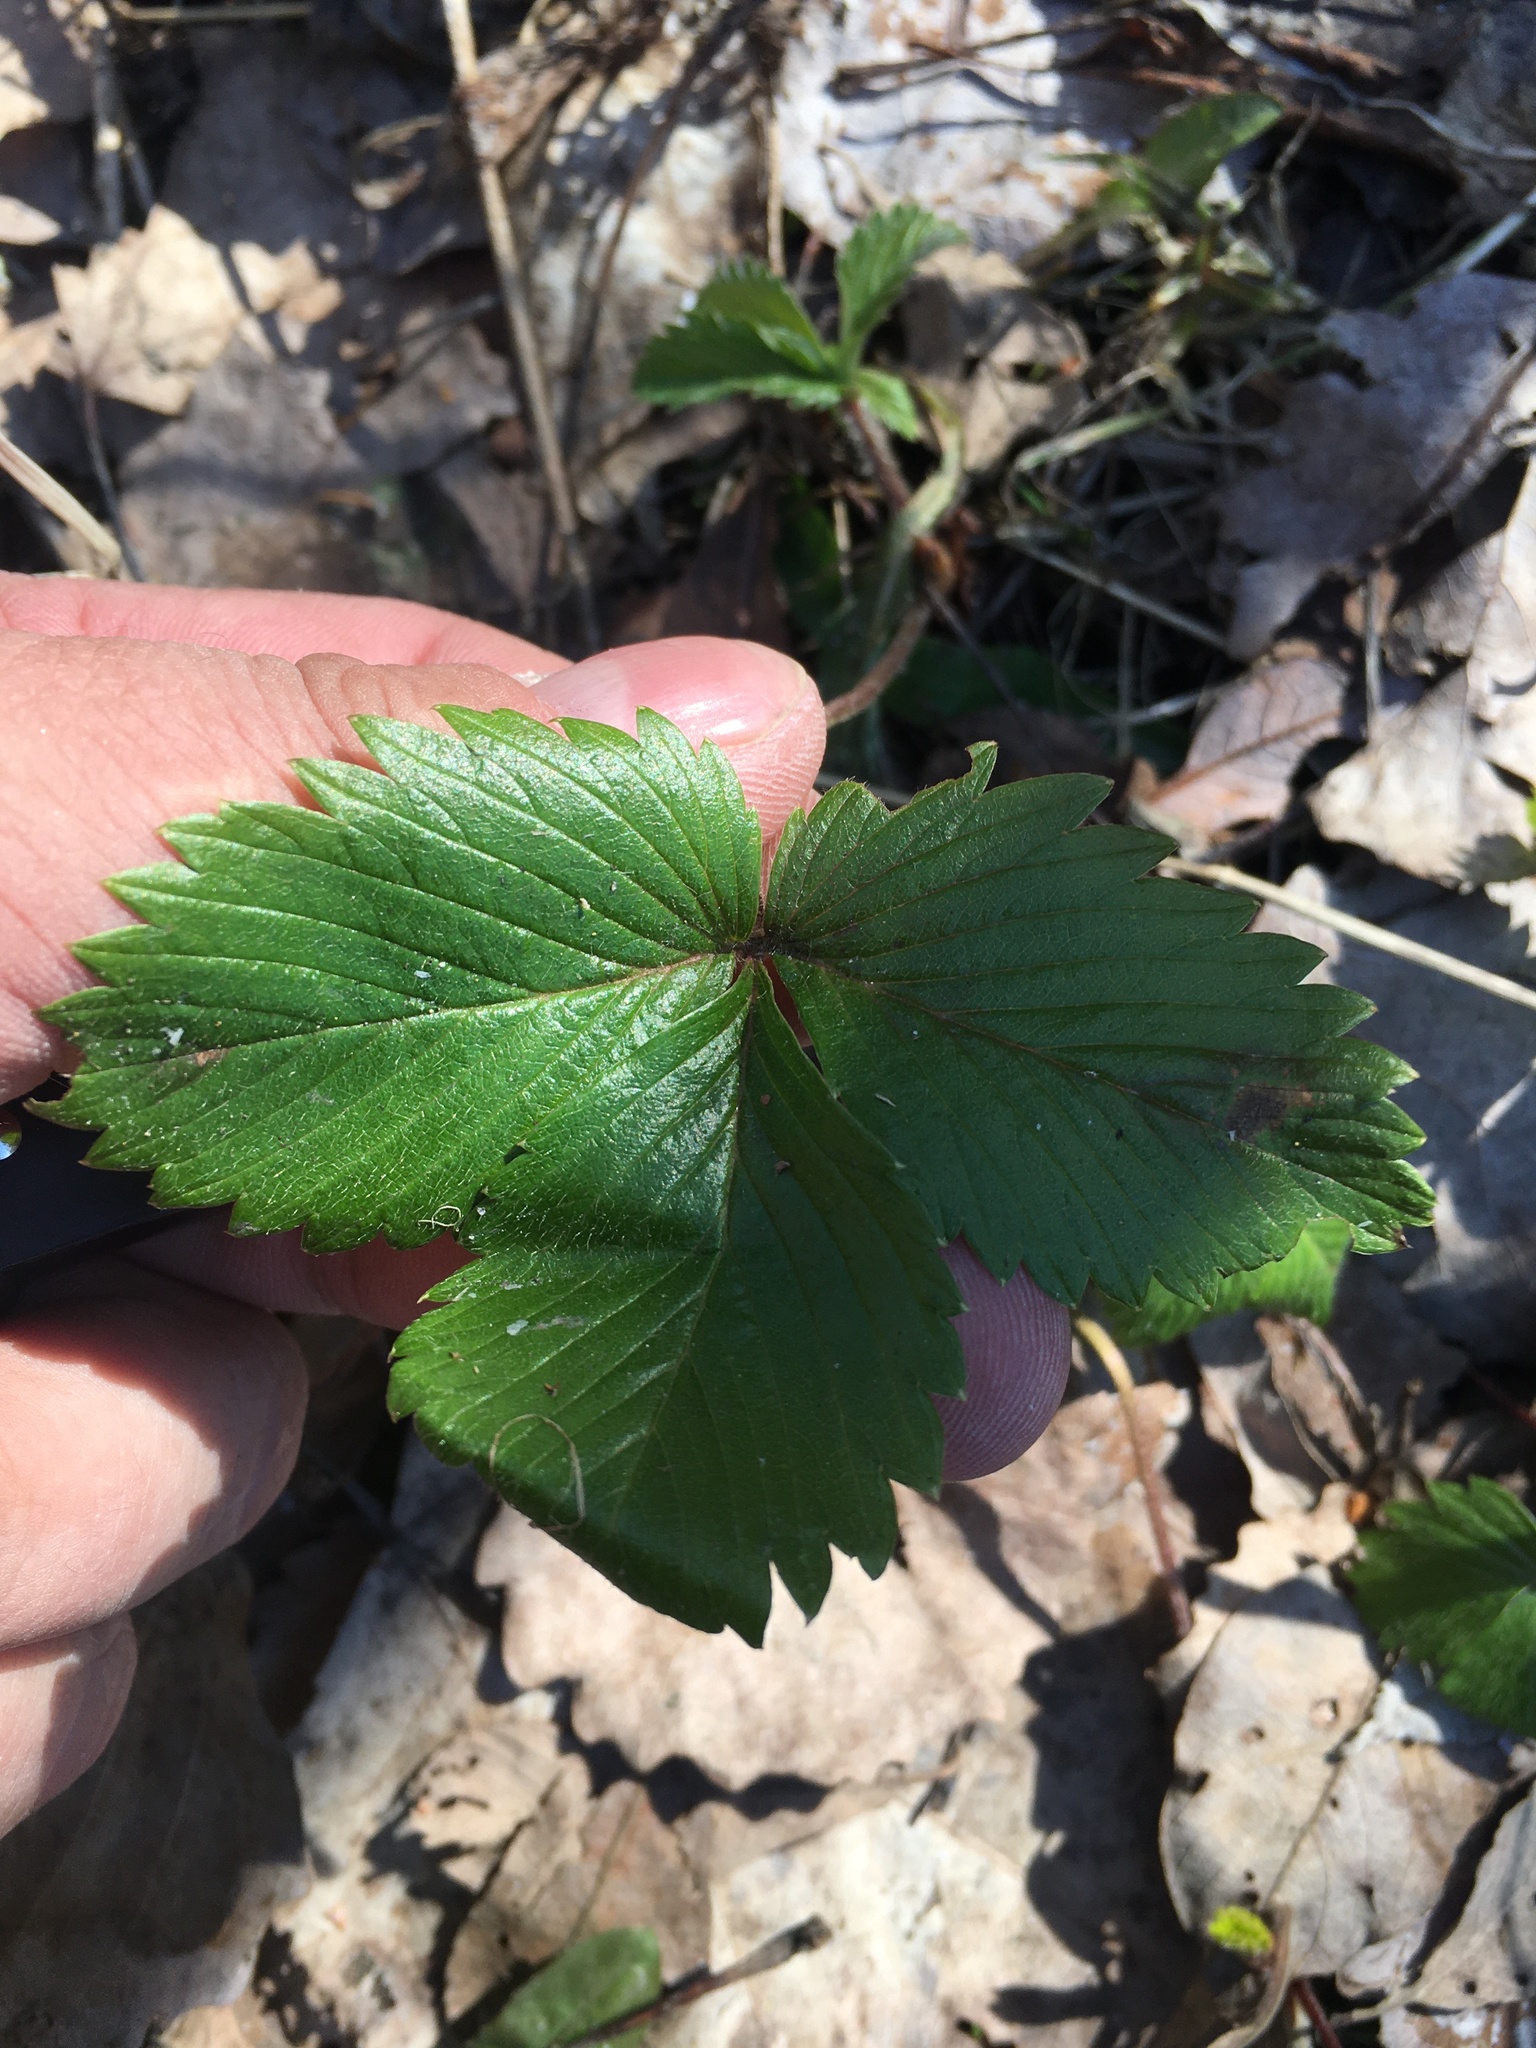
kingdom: Plantae
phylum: Tracheophyta
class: Magnoliopsida
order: Rosales
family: Rosaceae
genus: Fragaria
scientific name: Fragaria vesca
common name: Wild strawberry
